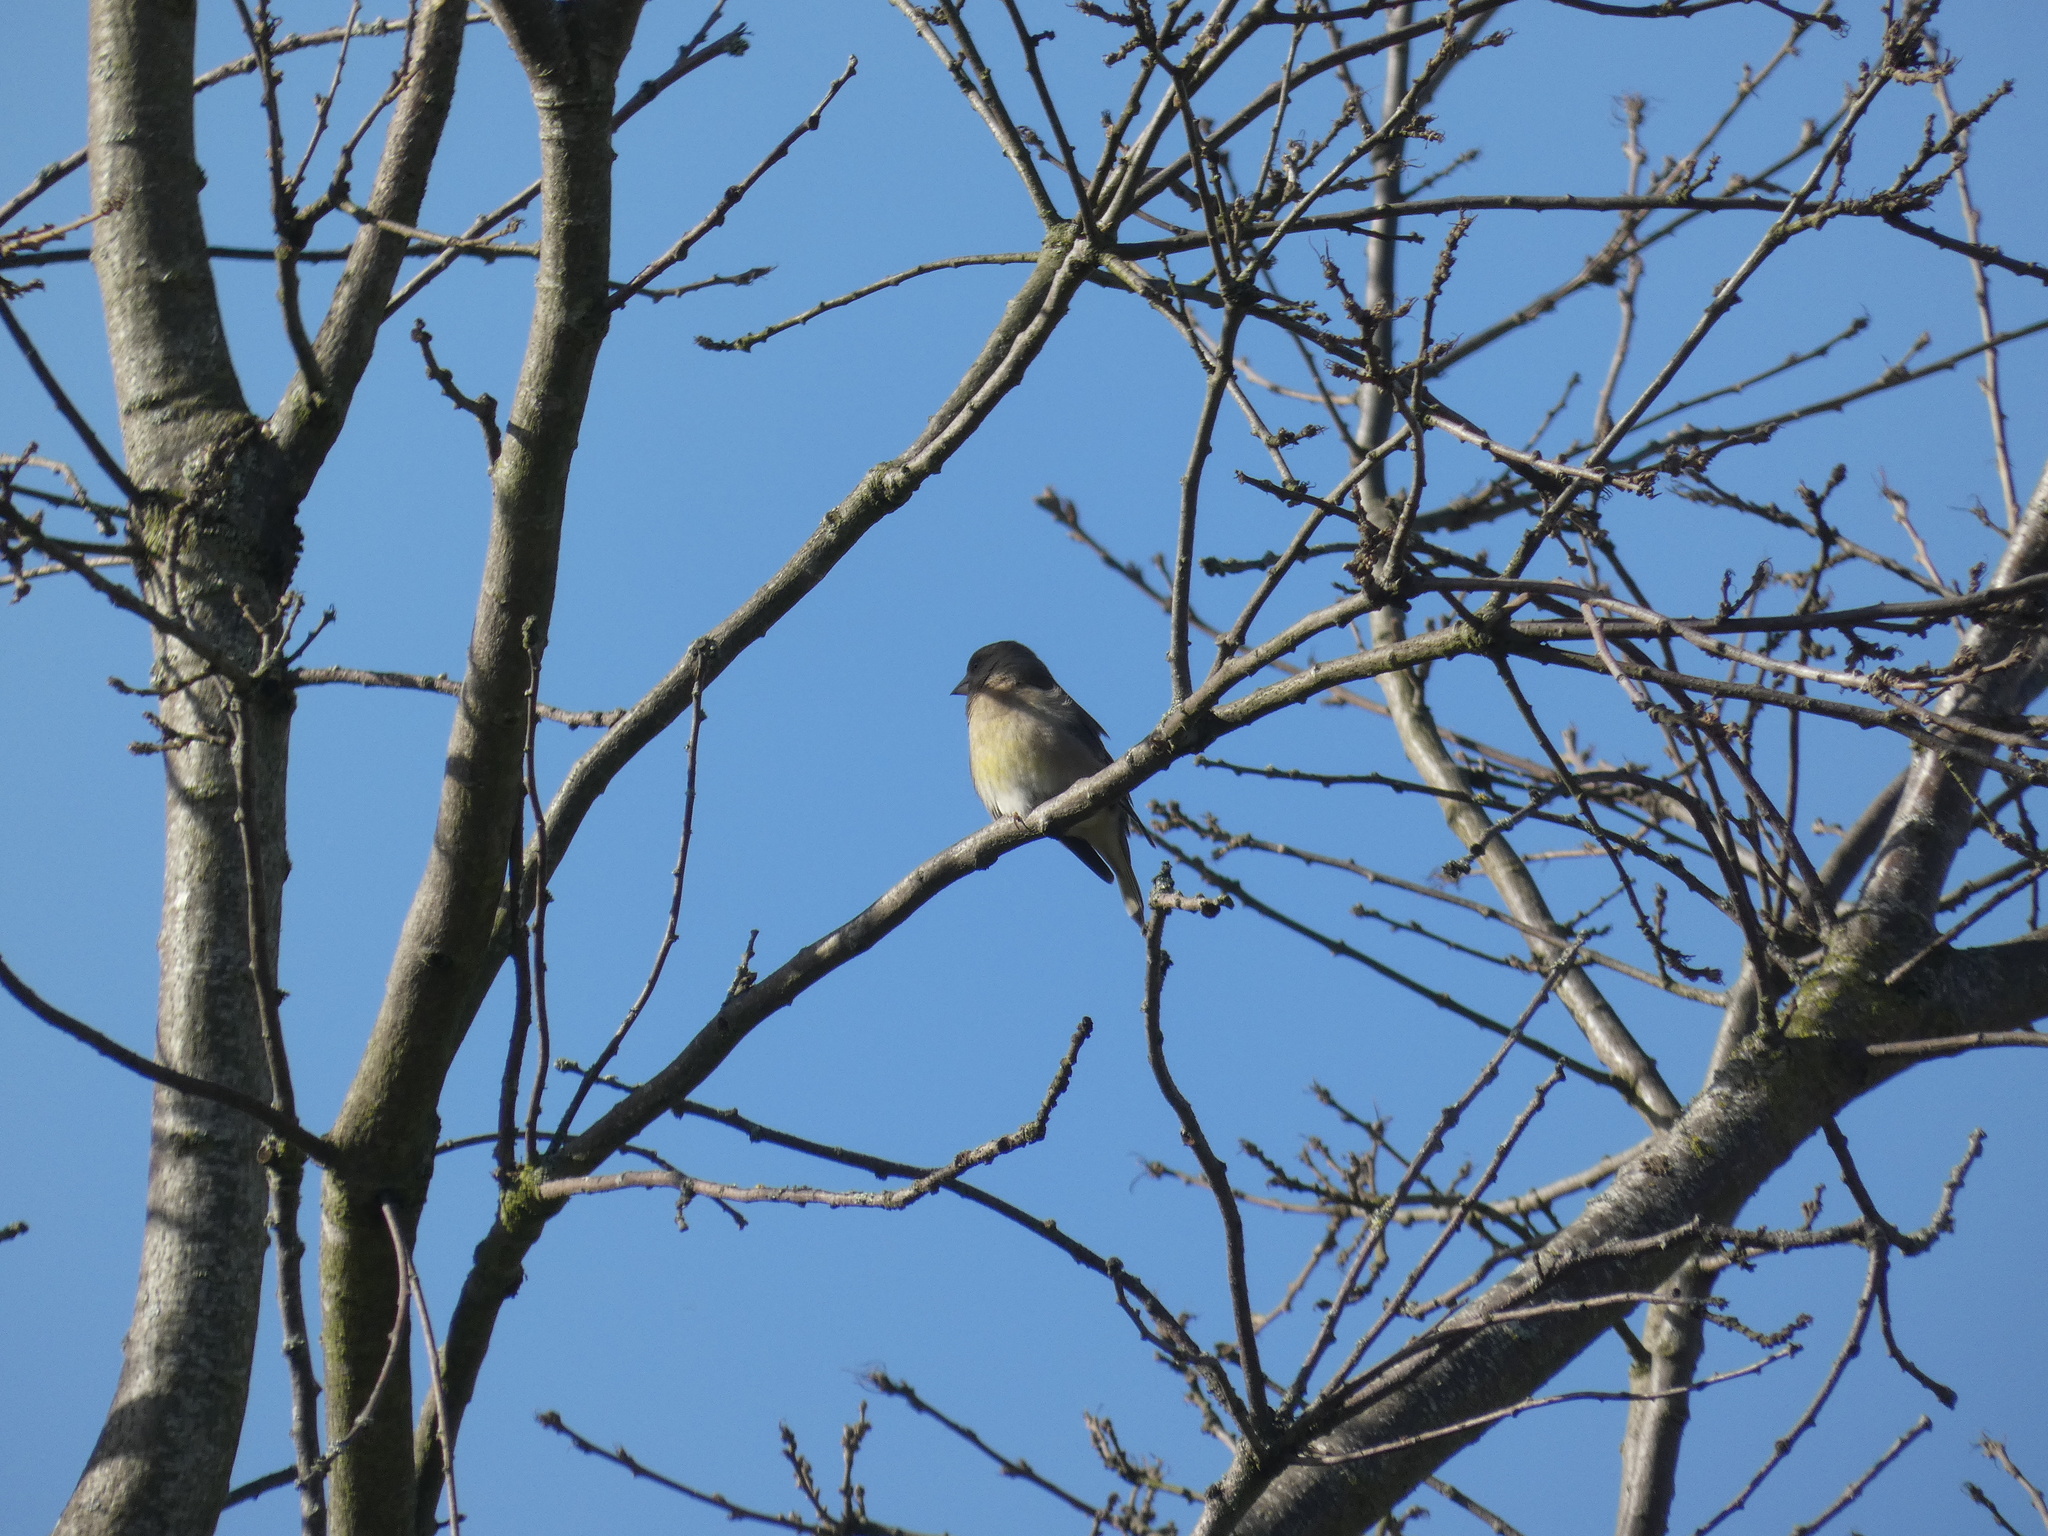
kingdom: Plantae
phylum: Tracheophyta
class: Liliopsida
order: Poales
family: Poaceae
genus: Chloris
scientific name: Chloris chloris
